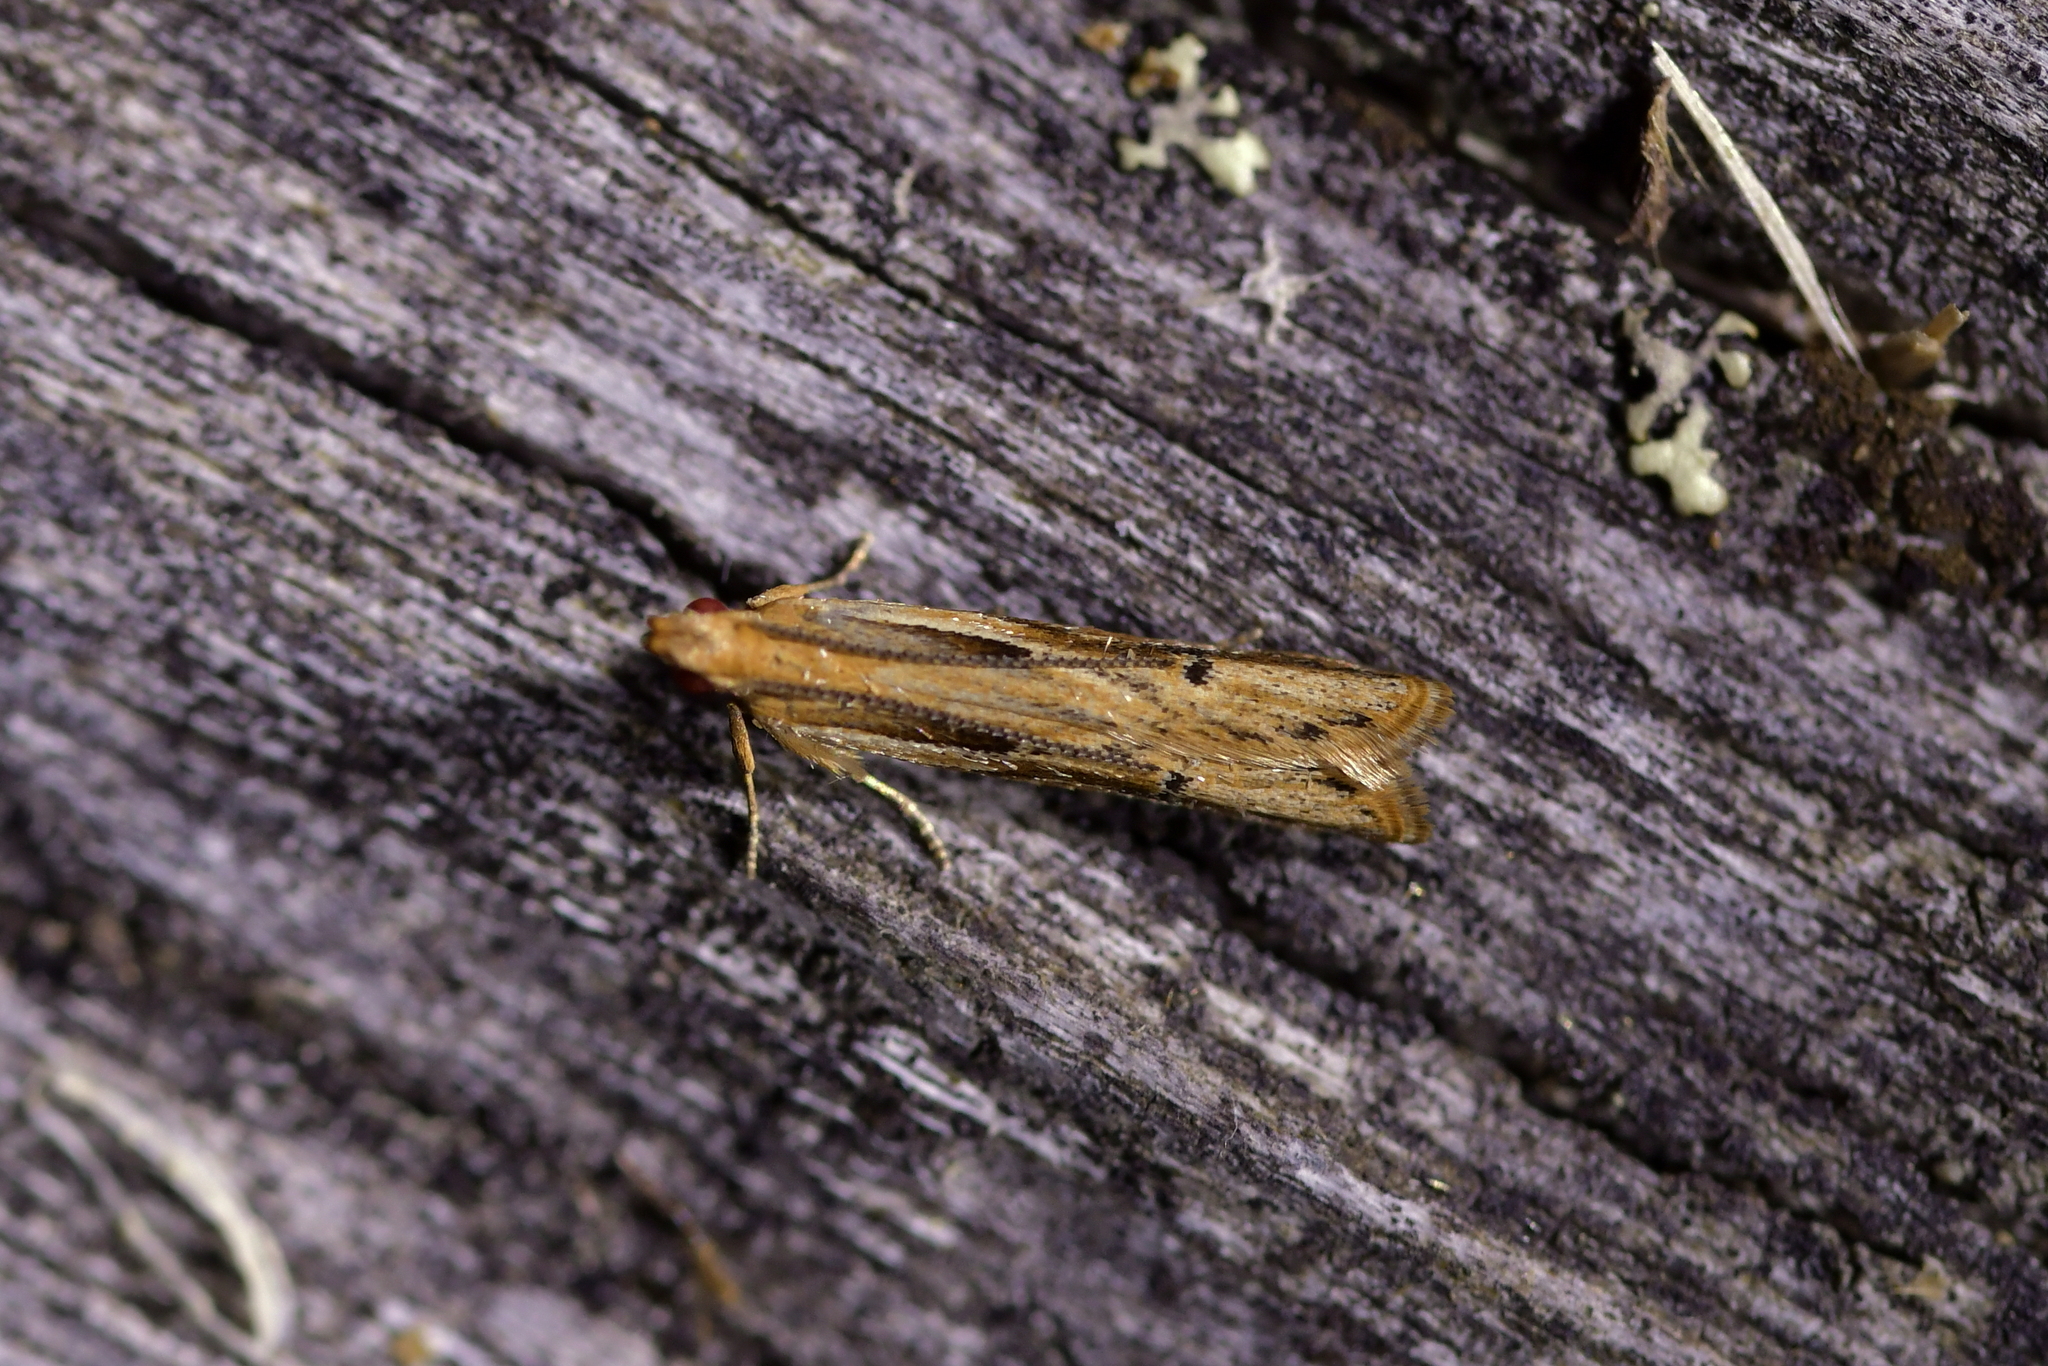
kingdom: Animalia
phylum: Arthropoda
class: Insecta
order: Lepidoptera
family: Depressariidae
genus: Eutorna
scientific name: Eutorna symmorpha
